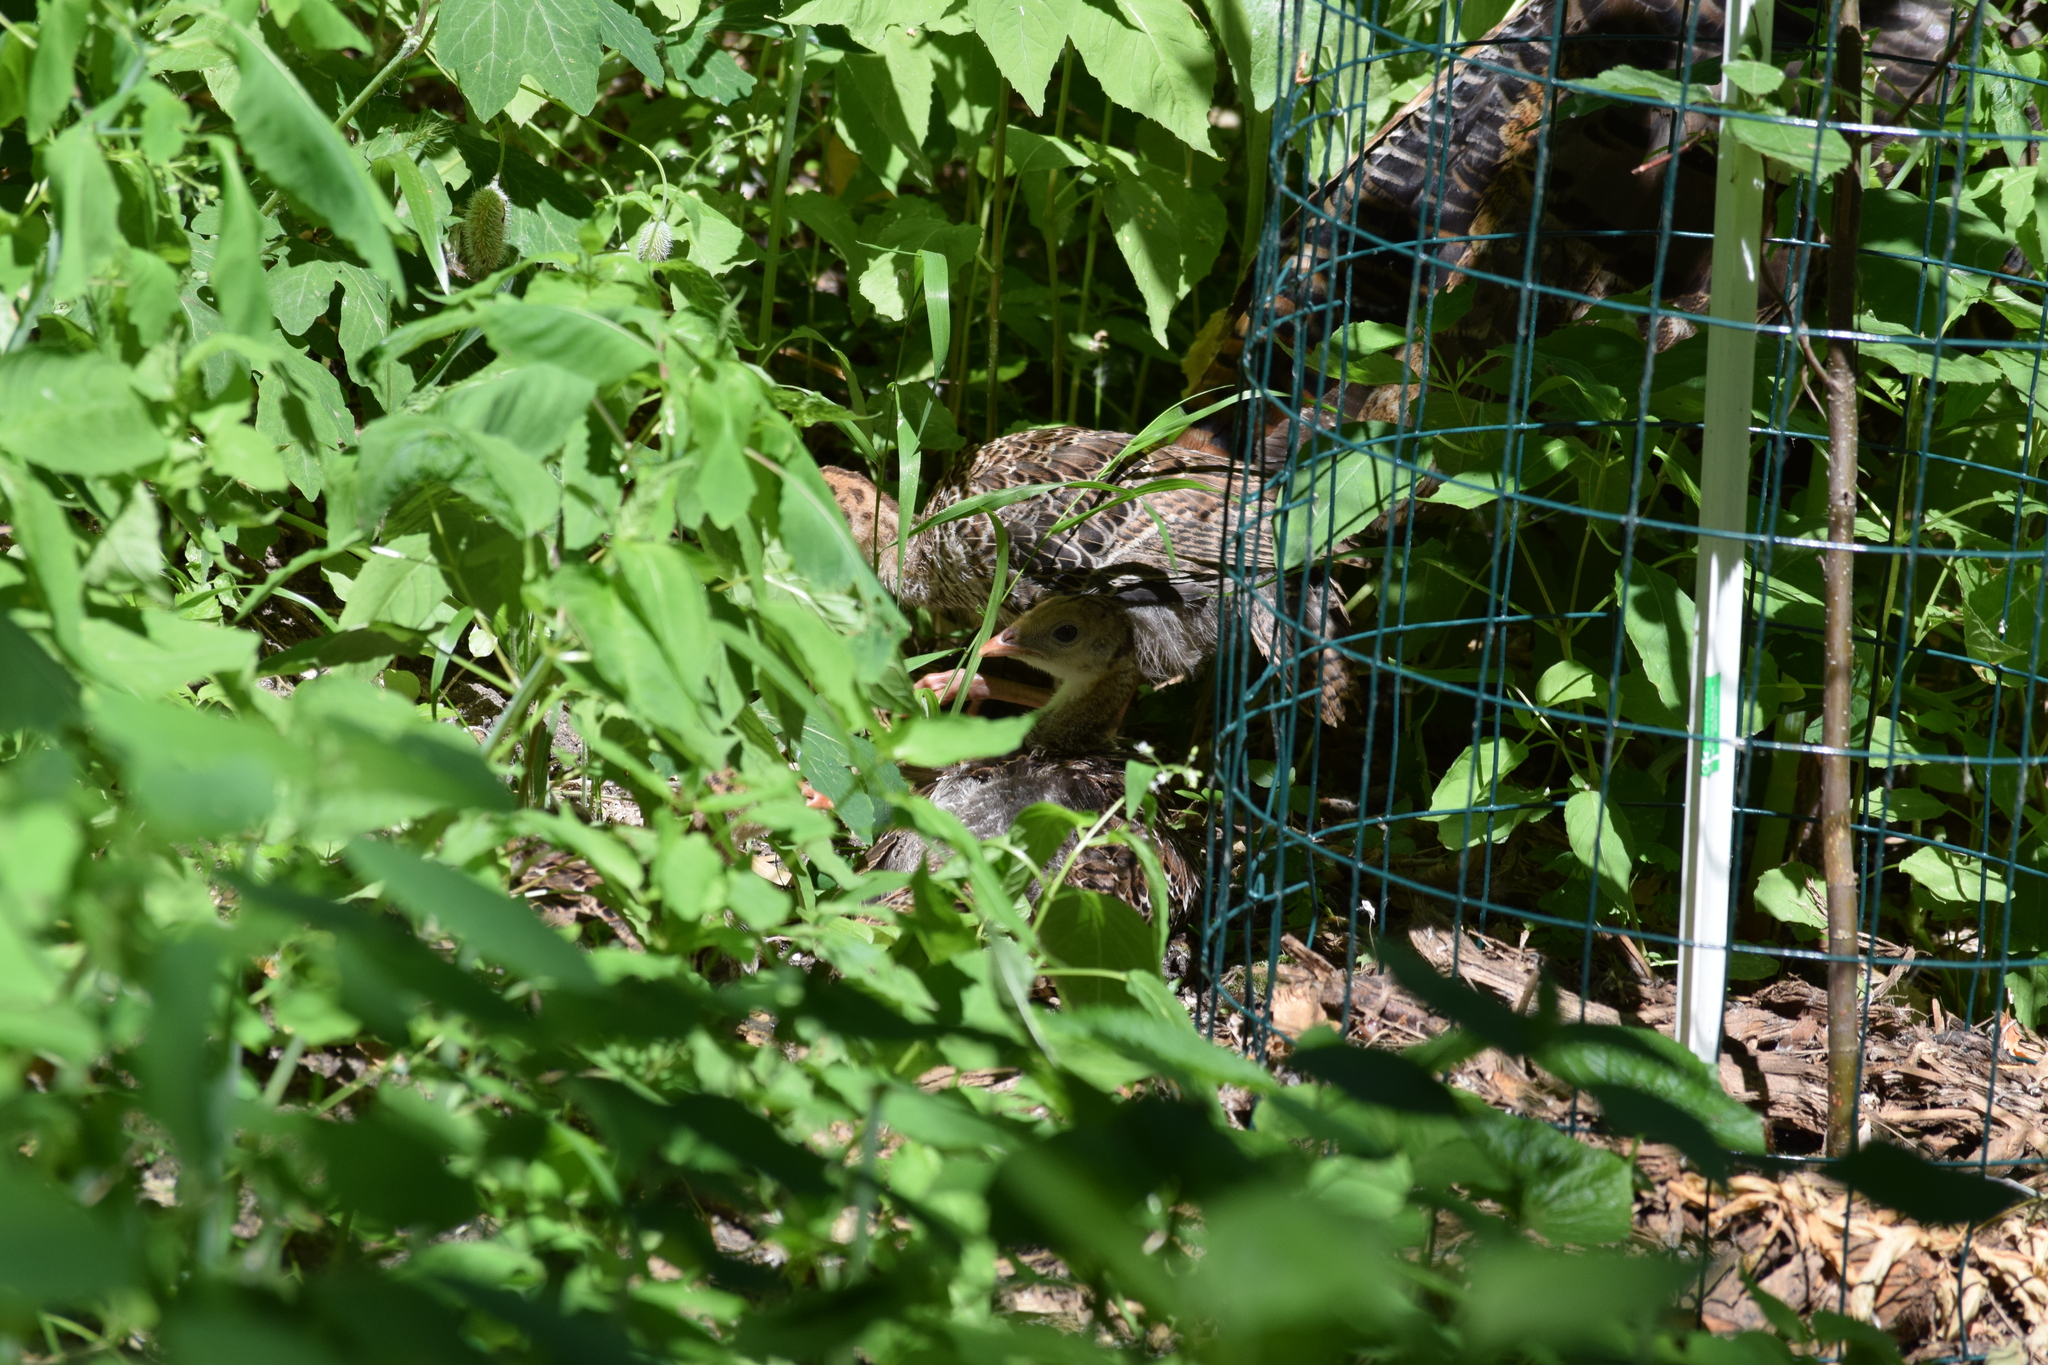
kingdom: Animalia
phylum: Chordata
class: Aves
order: Galliformes
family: Phasianidae
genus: Meleagris
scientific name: Meleagris gallopavo
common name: Wild turkey
